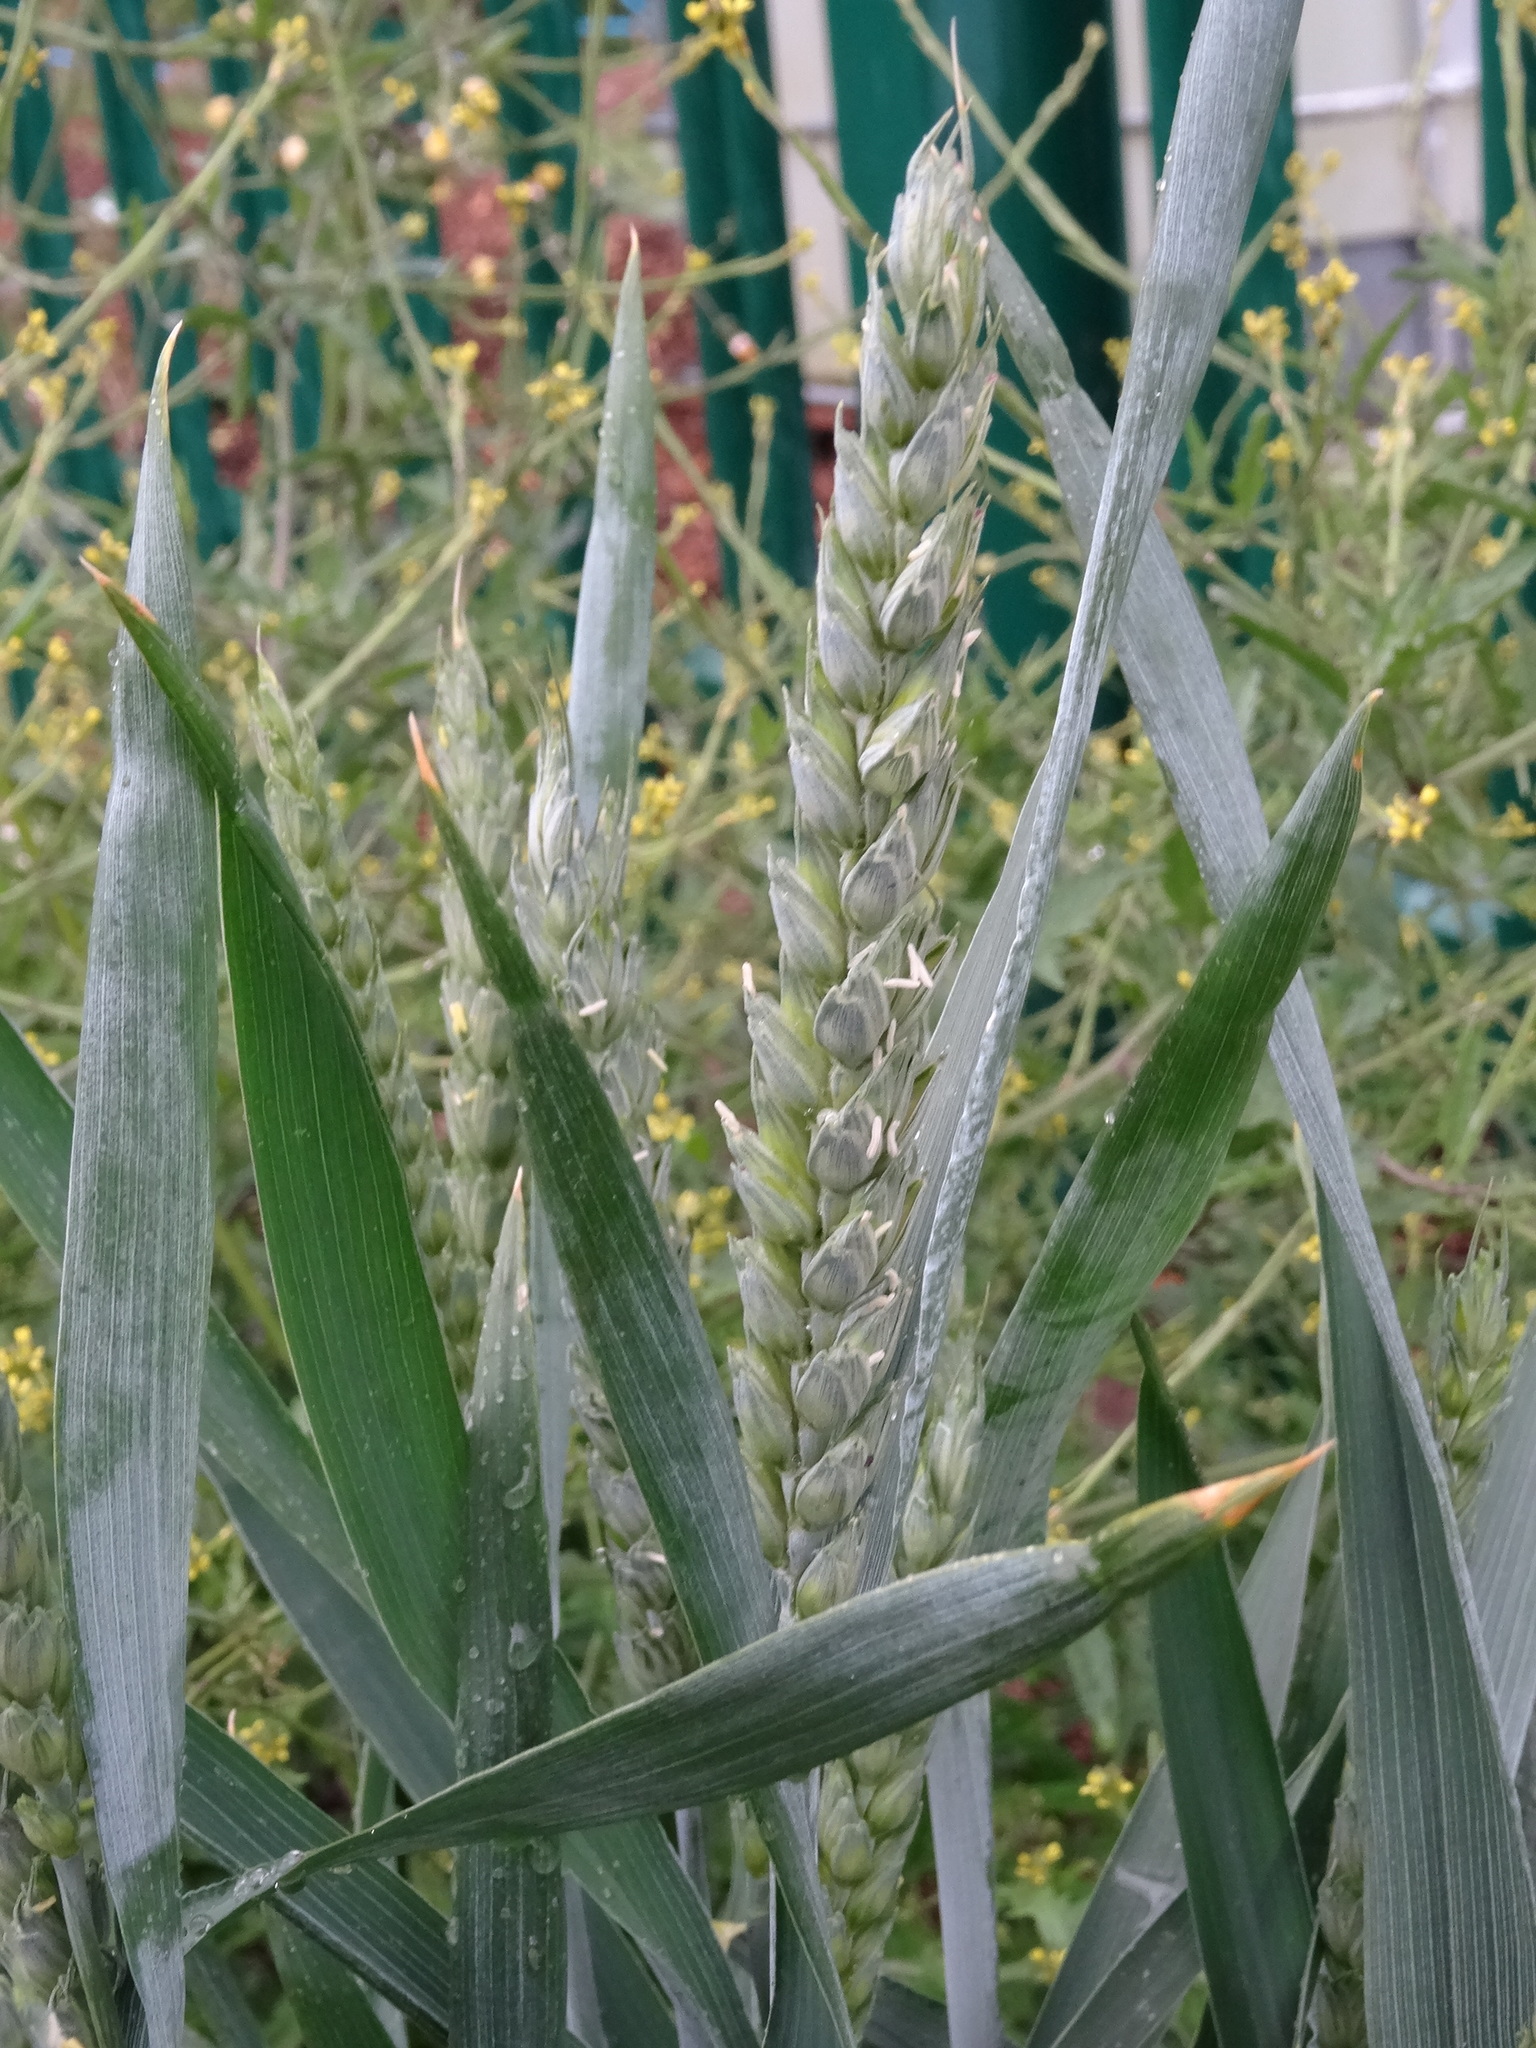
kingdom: Plantae
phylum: Tracheophyta
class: Liliopsida
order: Poales
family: Poaceae
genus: Triticum
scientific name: Triticum aestivum
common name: Common wheat
